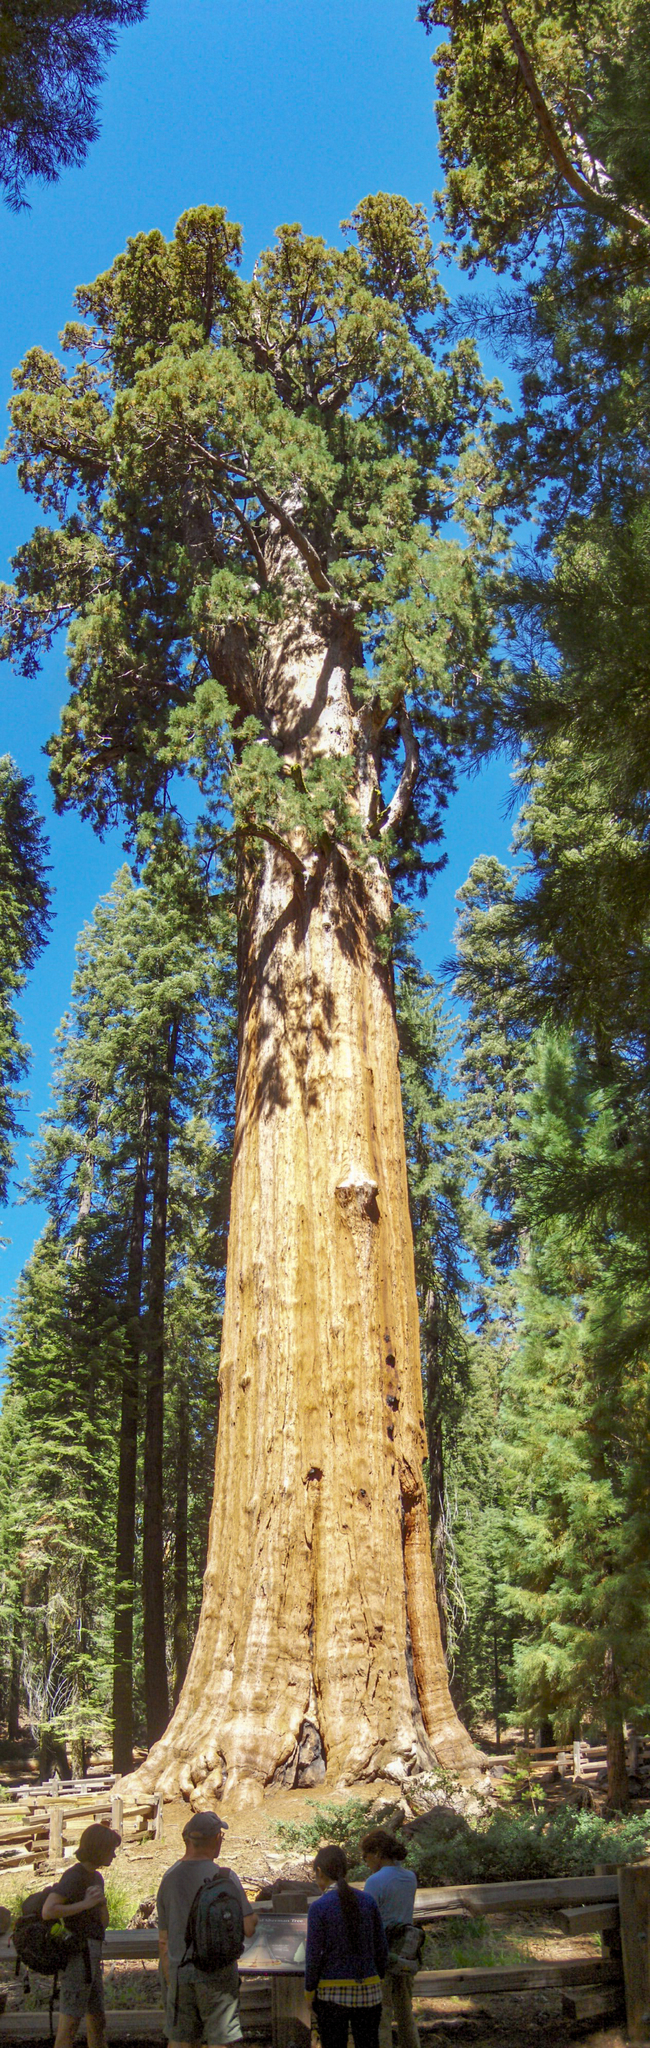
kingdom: Plantae
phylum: Tracheophyta
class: Pinopsida
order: Pinales
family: Cupressaceae
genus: Sequoiadendron
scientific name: Sequoiadendron giganteum
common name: Wellingtonia
